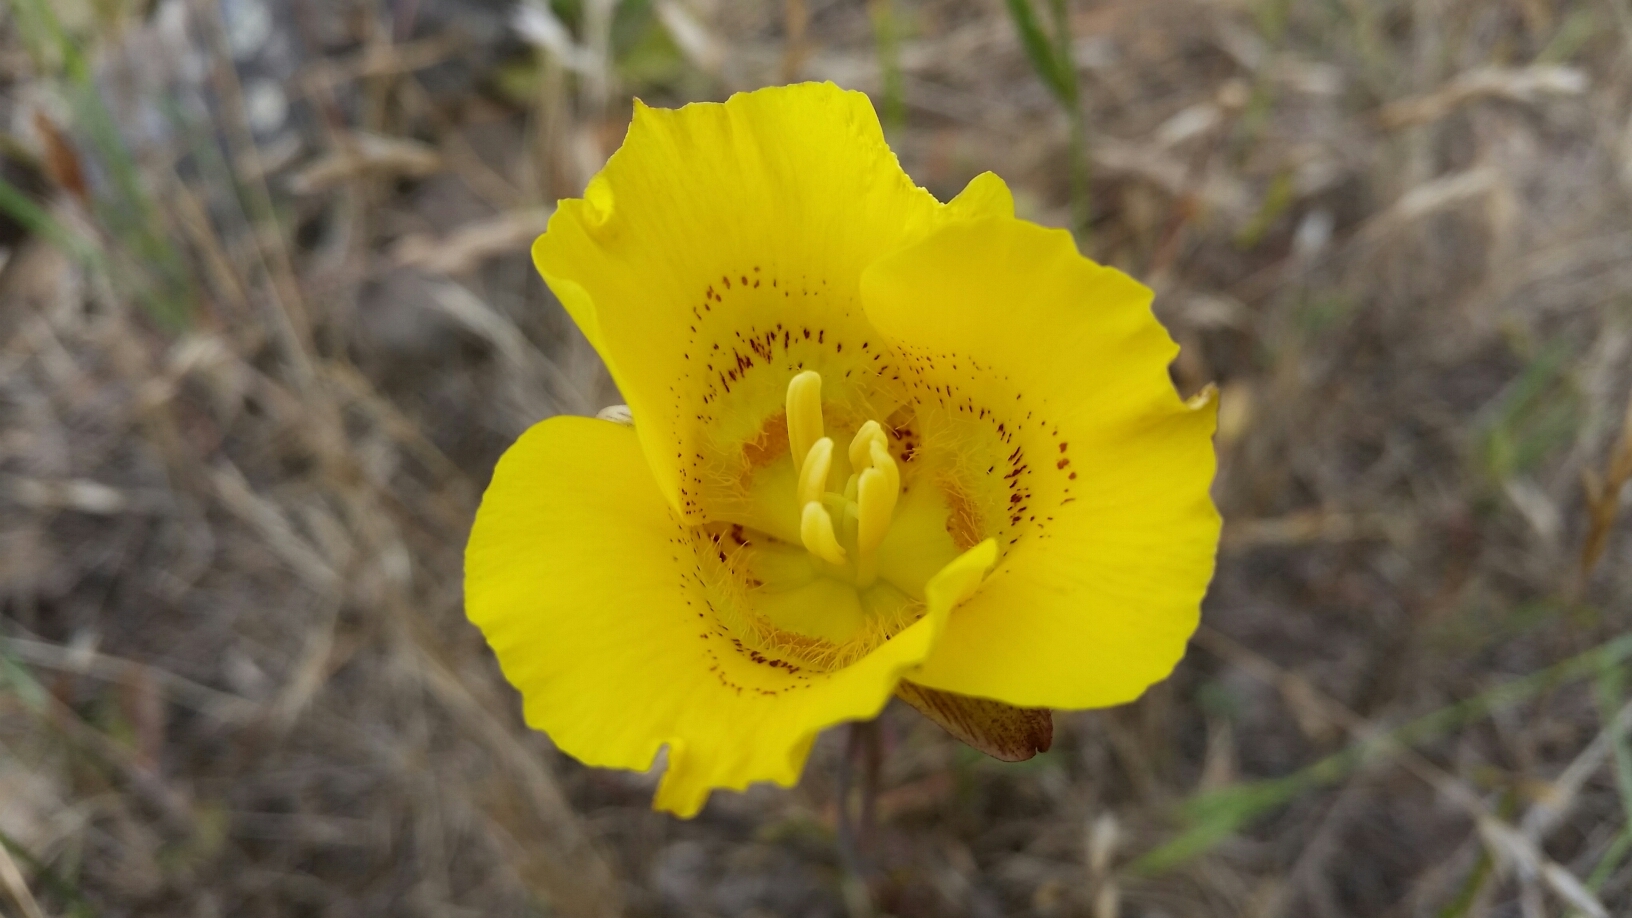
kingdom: Plantae
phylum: Tracheophyta
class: Liliopsida
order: Liliales
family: Liliaceae
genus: Calochortus
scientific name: Calochortus luteus
